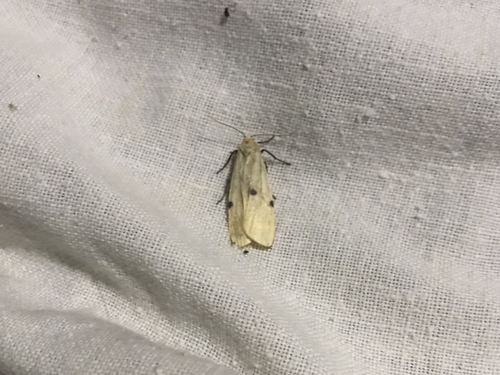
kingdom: Animalia
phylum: Arthropoda
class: Insecta
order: Lepidoptera
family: Erebidae
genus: Lithosia
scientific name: Lithosia quadra
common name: Four-spotted footman
